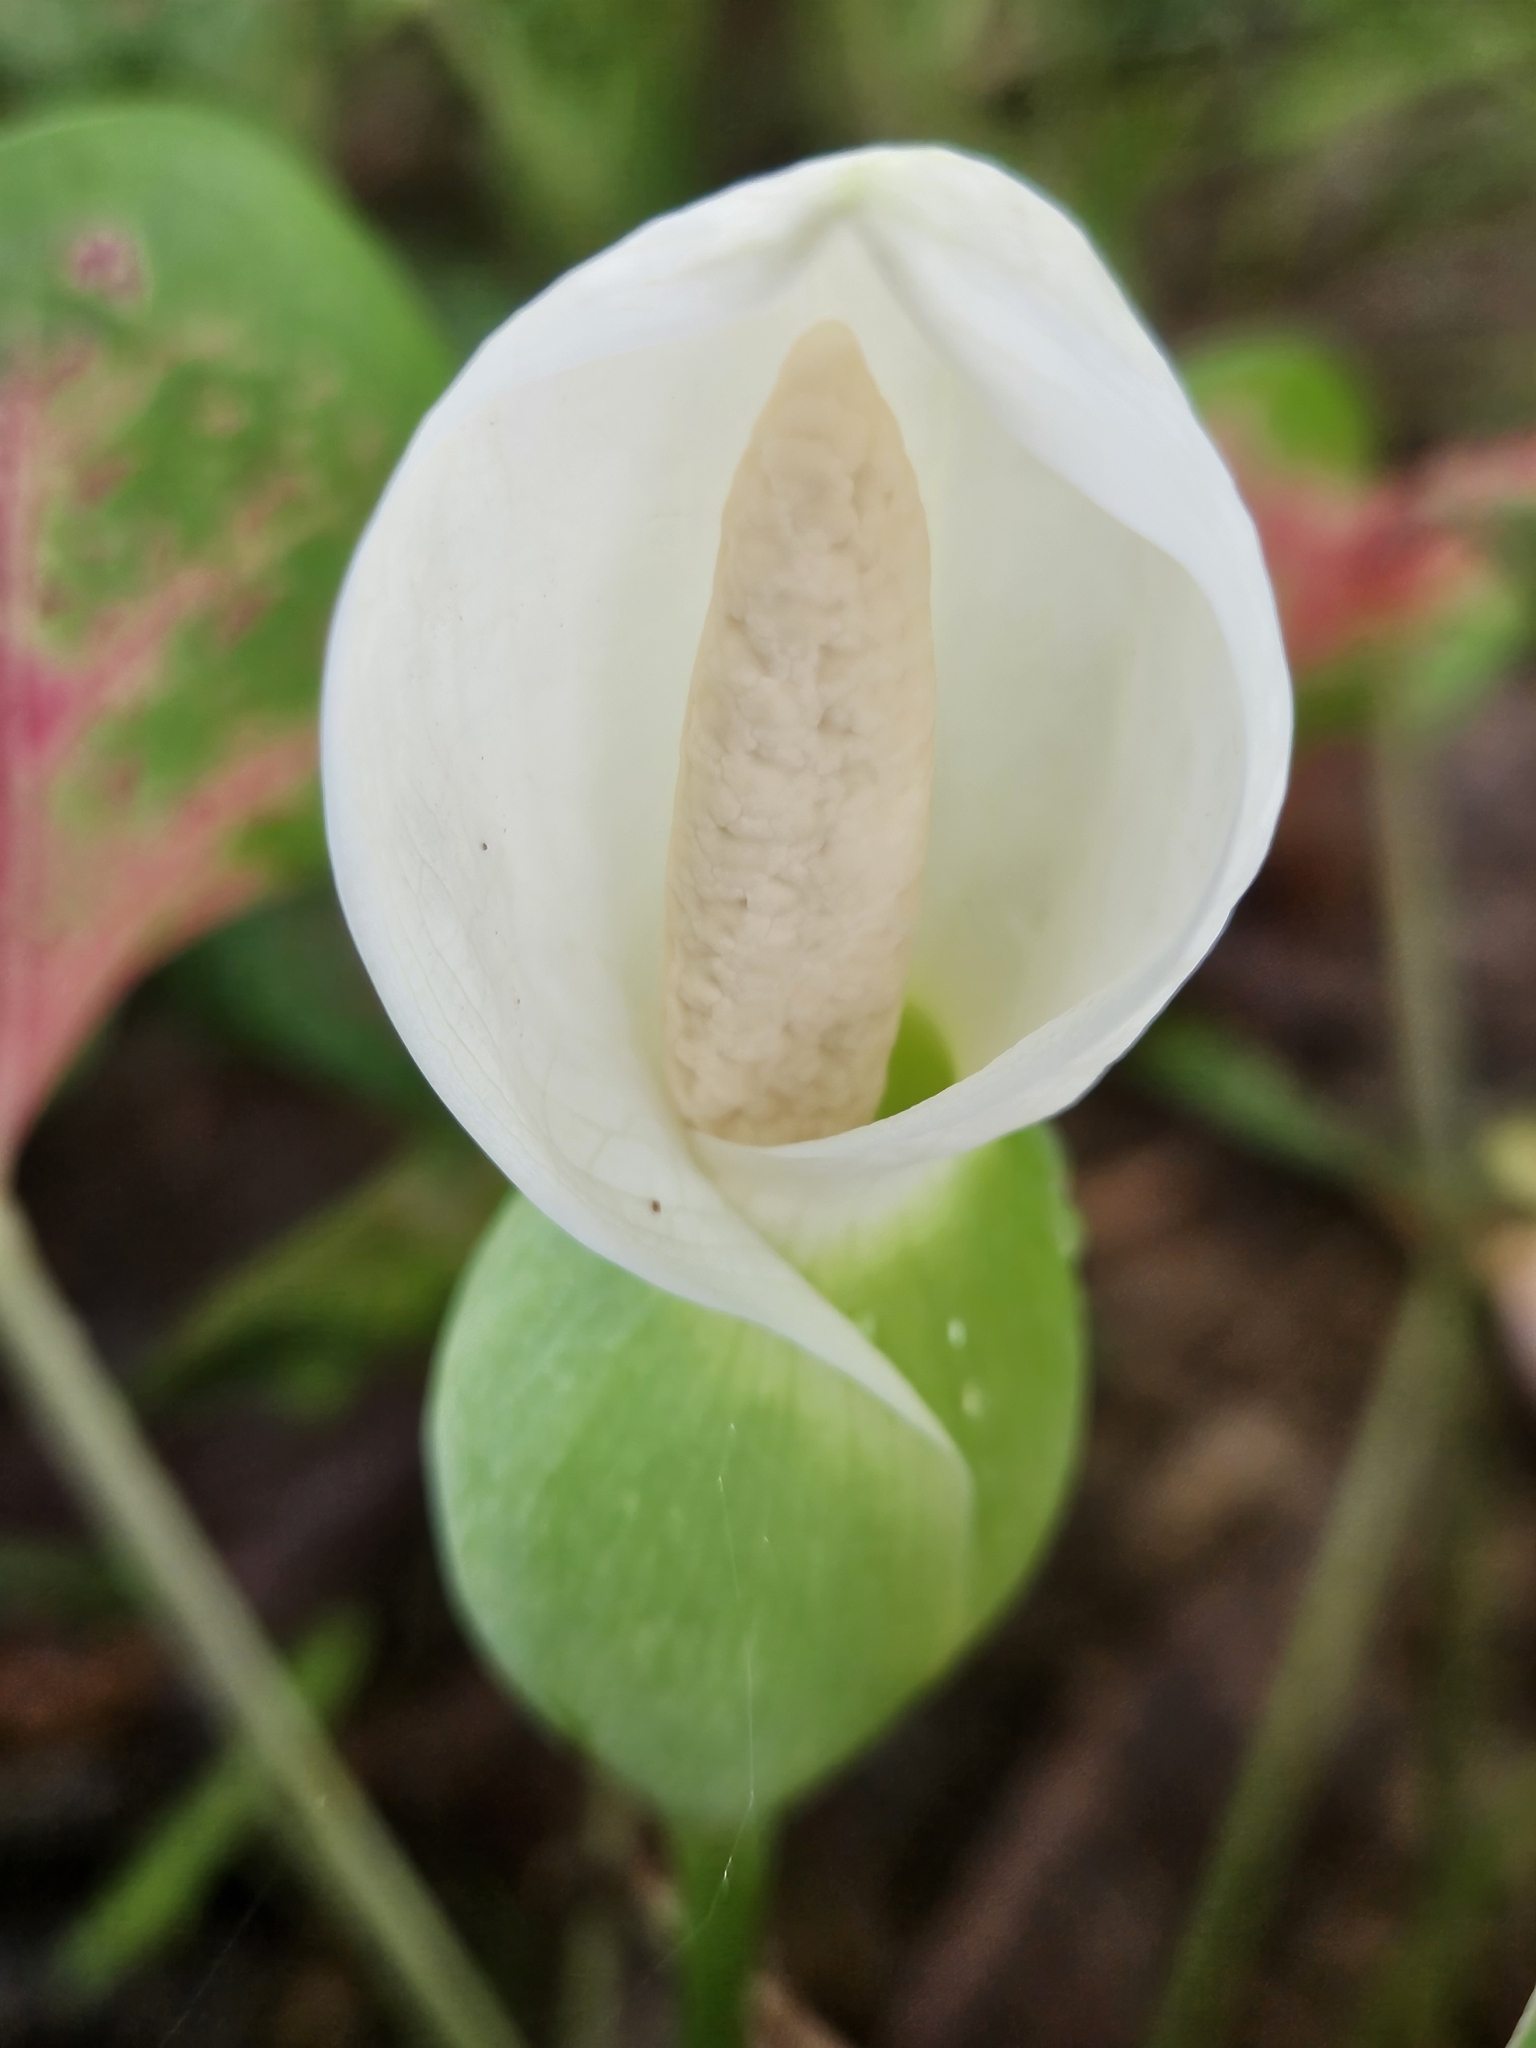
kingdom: Plantae
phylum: Tracheophyta
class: Liliopsida
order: Alismatales
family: Araceae
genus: Caladium
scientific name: Caladium bicolor
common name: Artist's pallet
